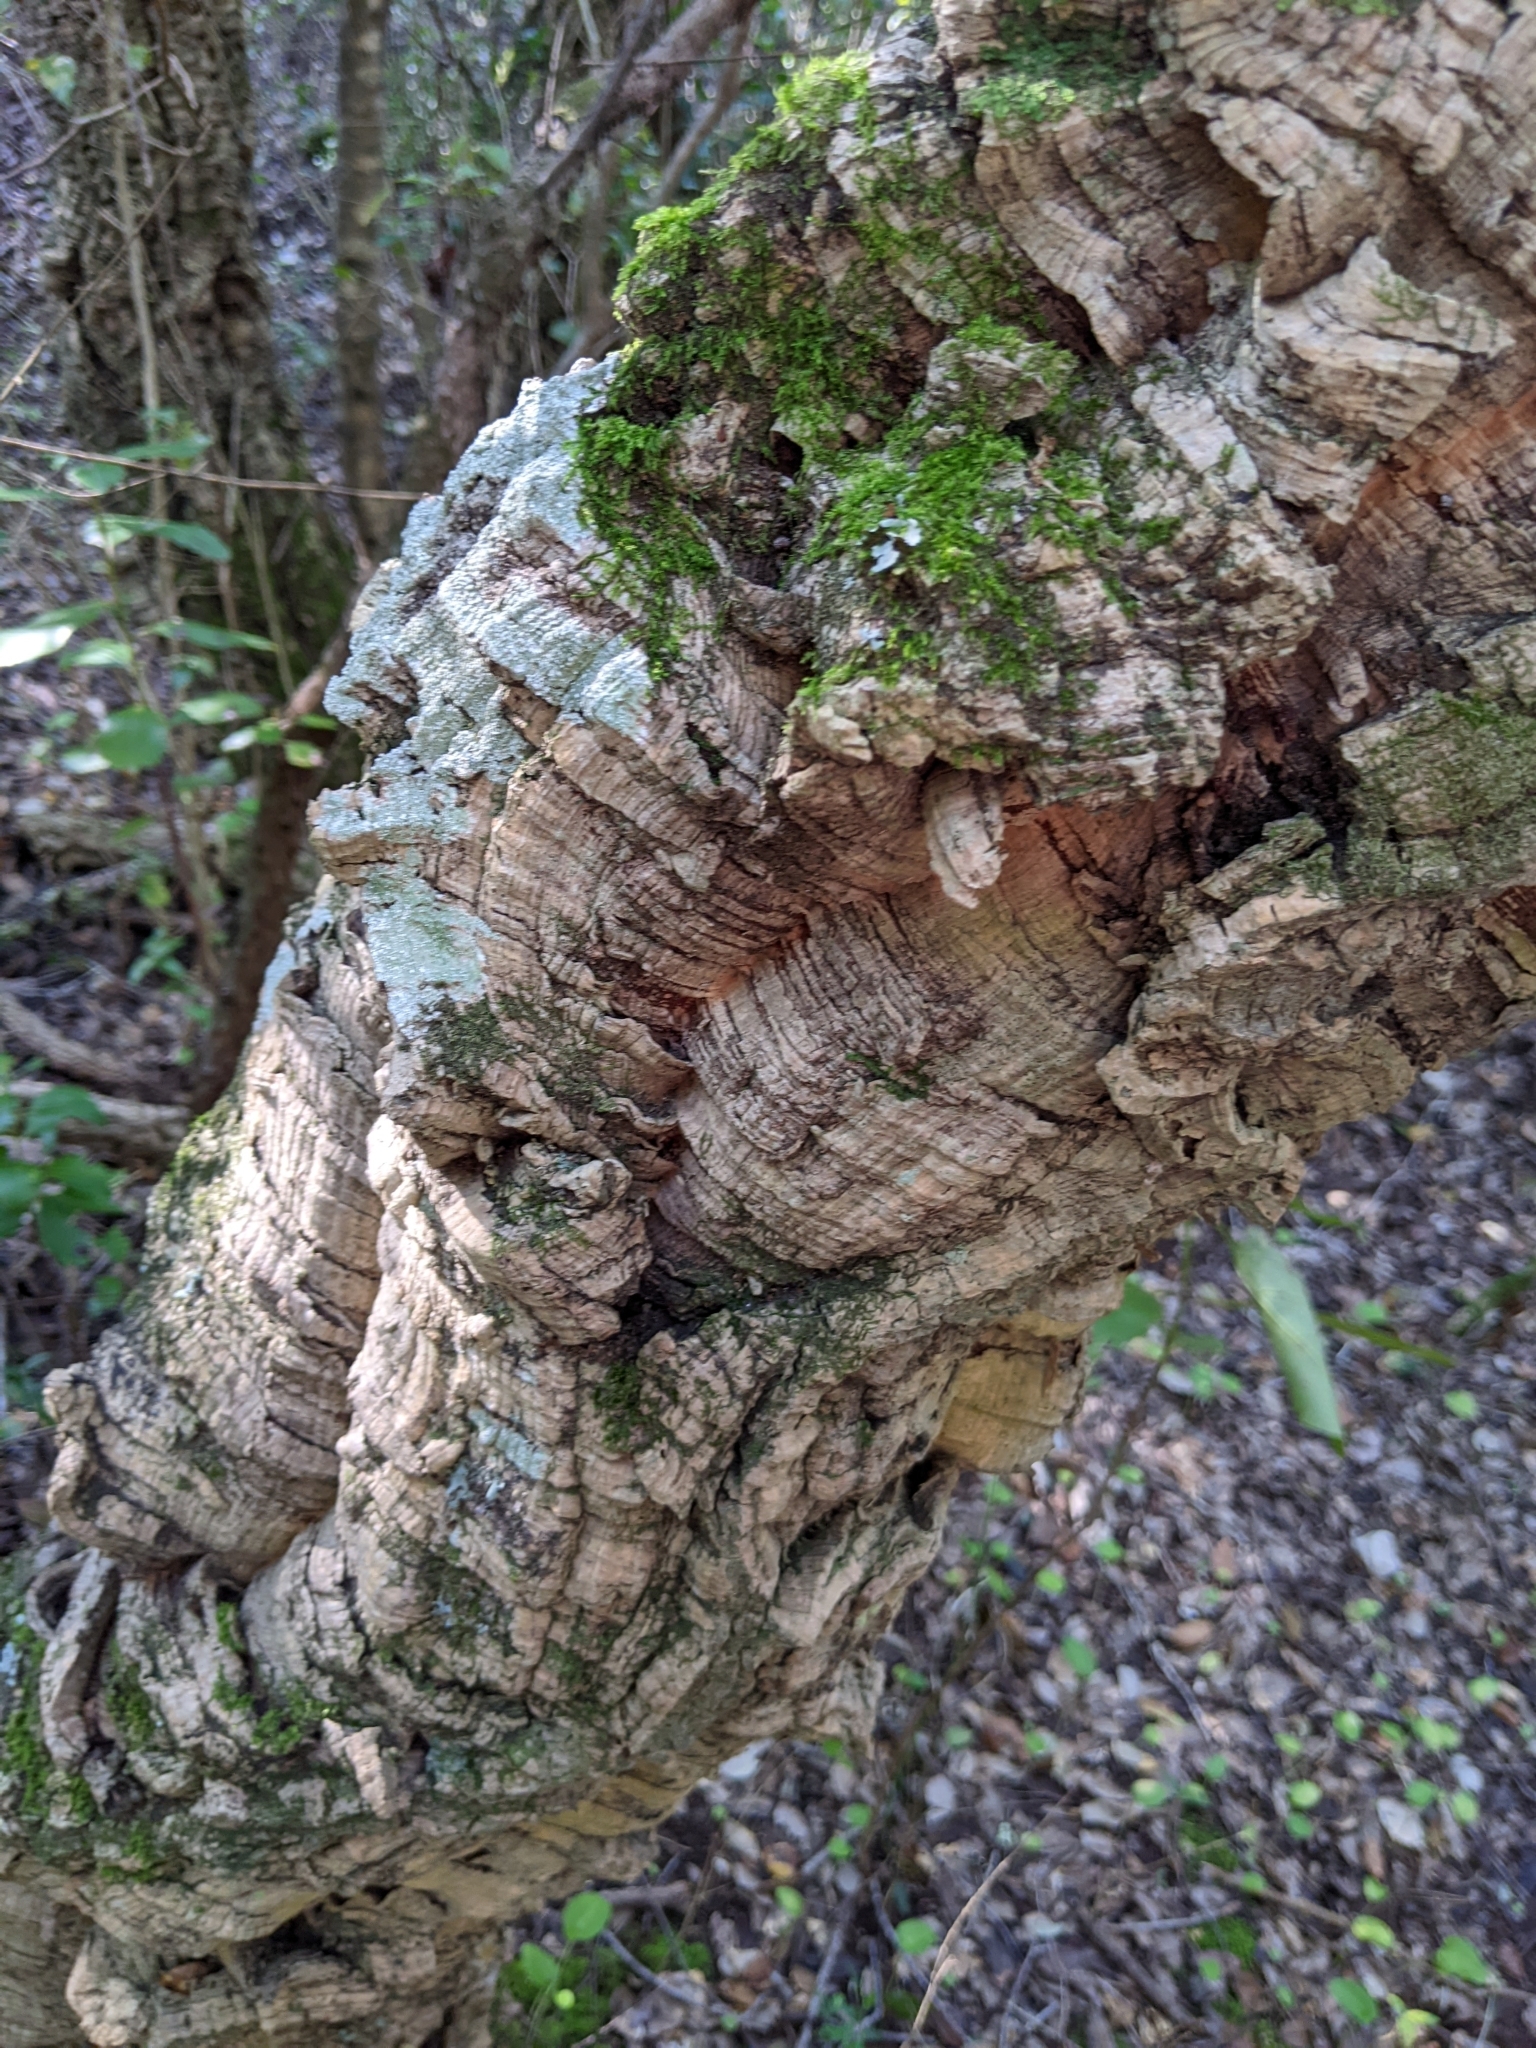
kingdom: Plantae
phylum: Tracheophyta
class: Magnoliopsida
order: Fagales
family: Fagaceae
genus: Quercus
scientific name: Quercus suber
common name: Cork oak
